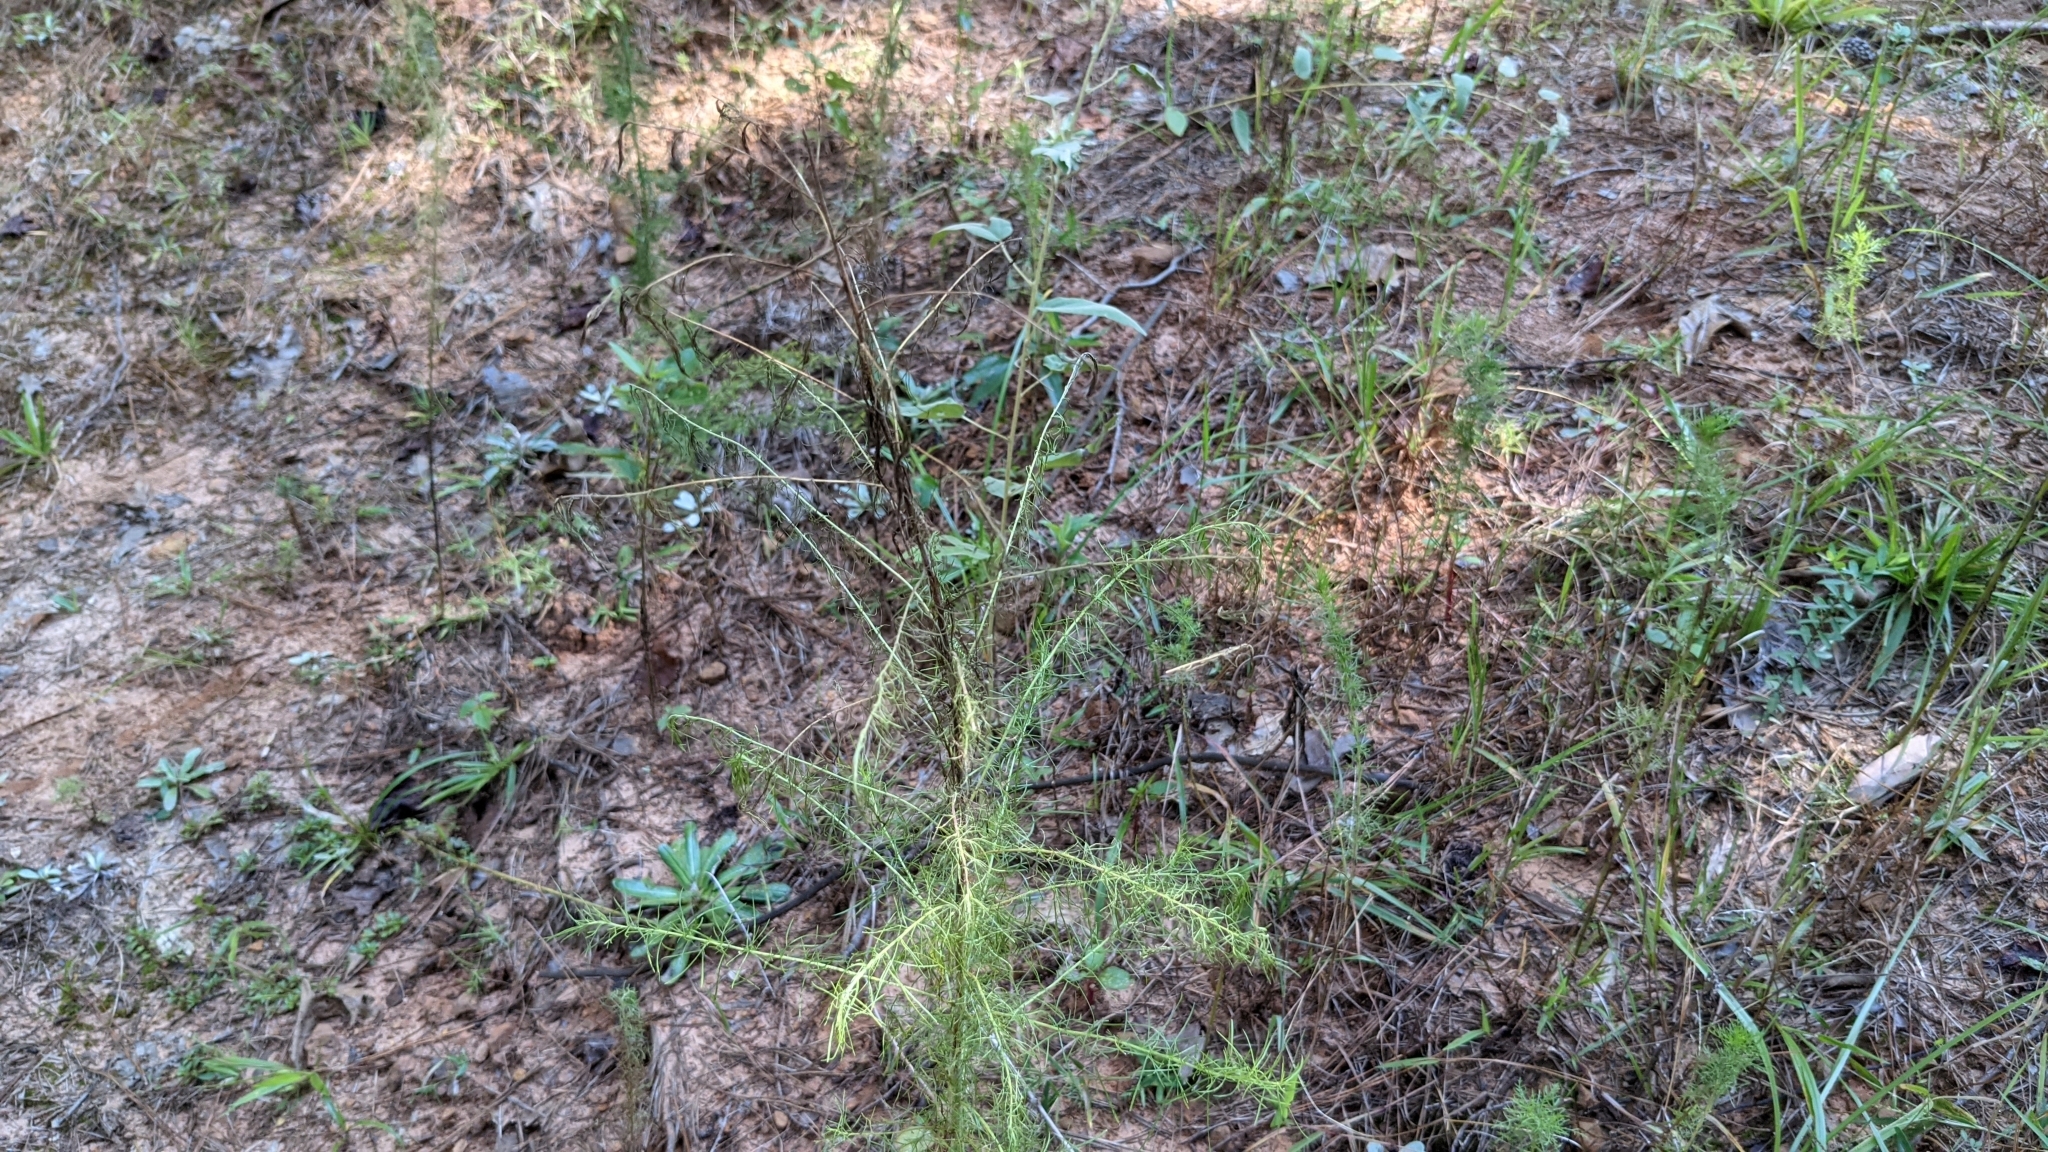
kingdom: Plantae
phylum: Tracheophyta
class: Magnoliopsida
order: Asterales
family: Asteraceae
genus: Eupatorium
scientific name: Eupatorium capillifolium
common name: Dog-fennel
